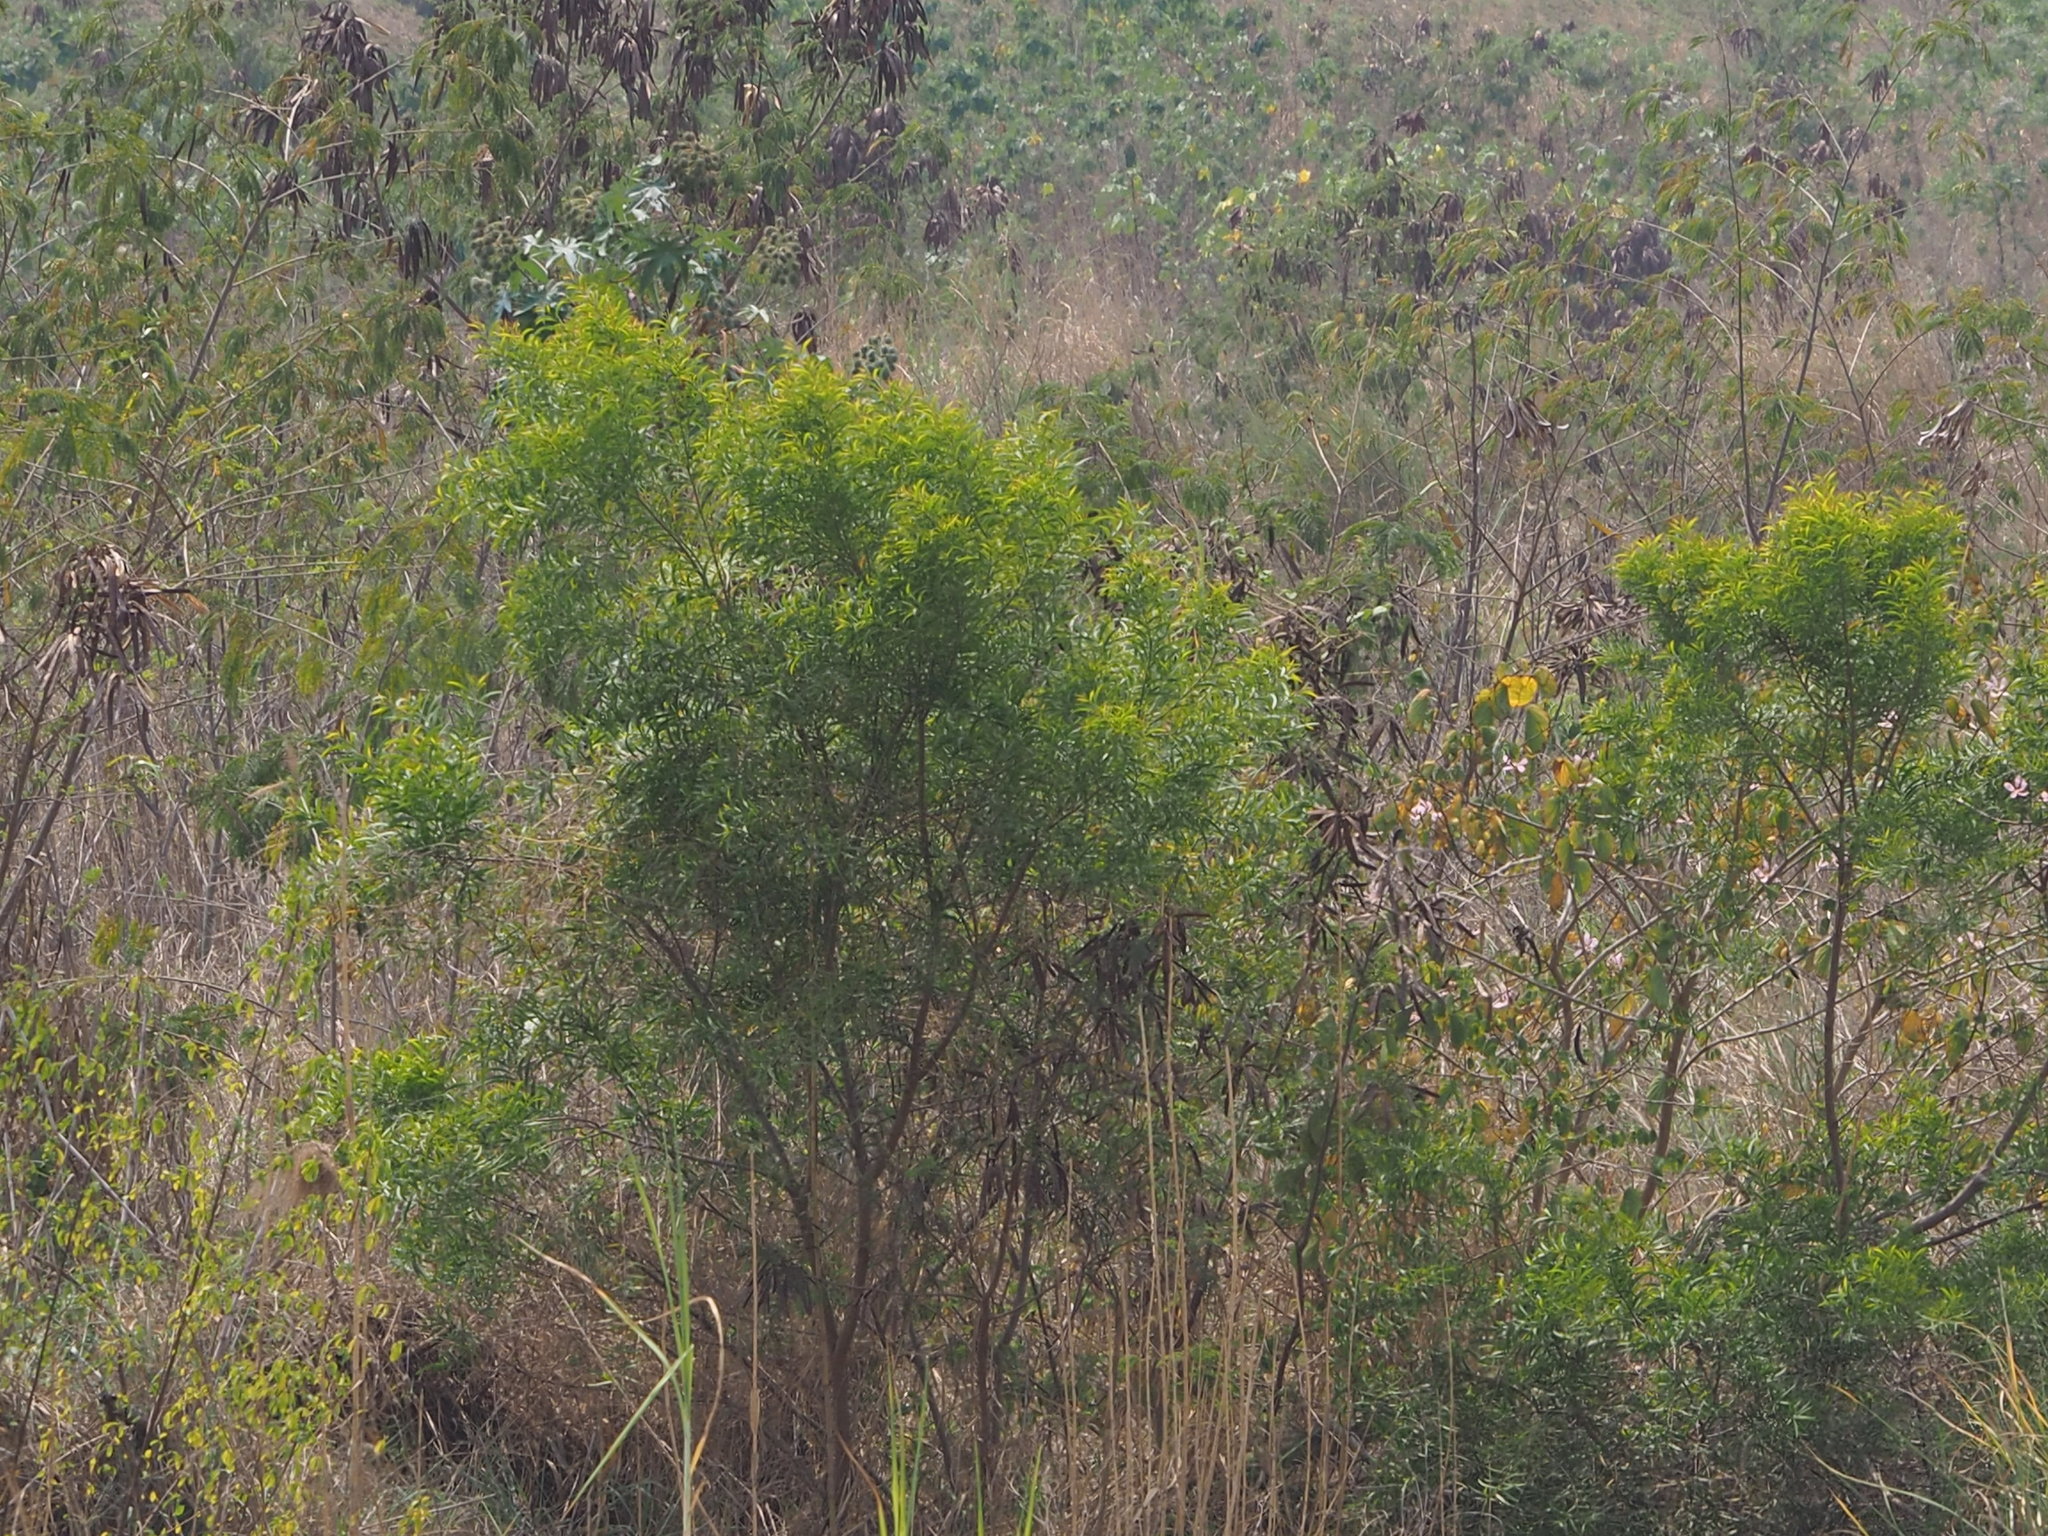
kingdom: Plantae
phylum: Tracheophyta
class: Magnoliopsida
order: Fabales
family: Fabaceae
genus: Acacia
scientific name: Acacia confusa
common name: Formosan koa
